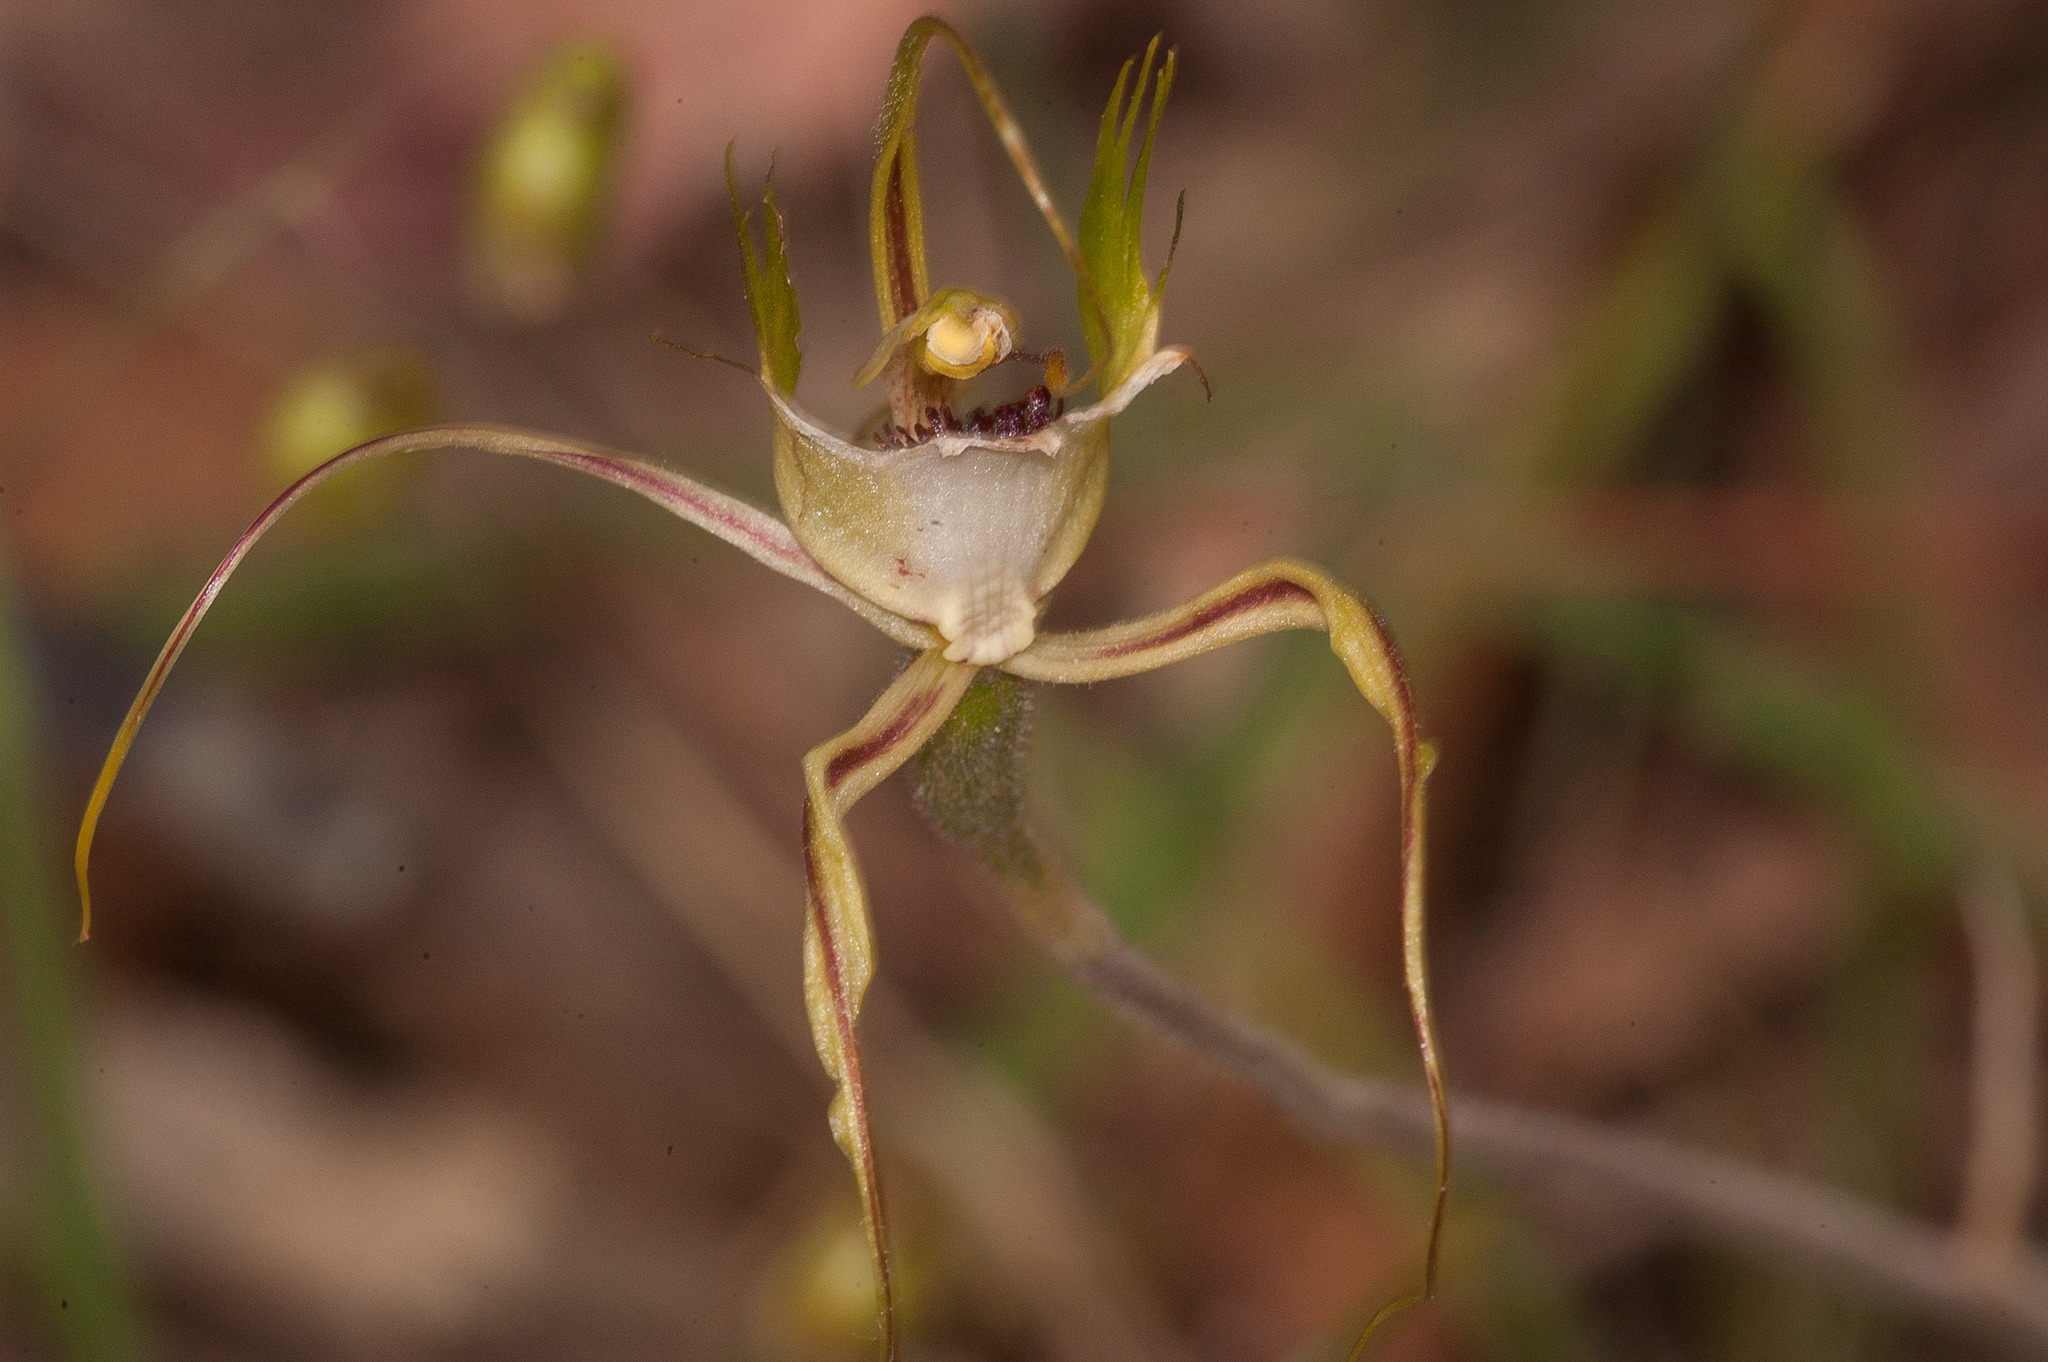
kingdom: Plantae
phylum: Tracheophyta
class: Liliopsida
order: Asparagales
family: Orchidaceae
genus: Caladenia
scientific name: Caladenia tentaculata
